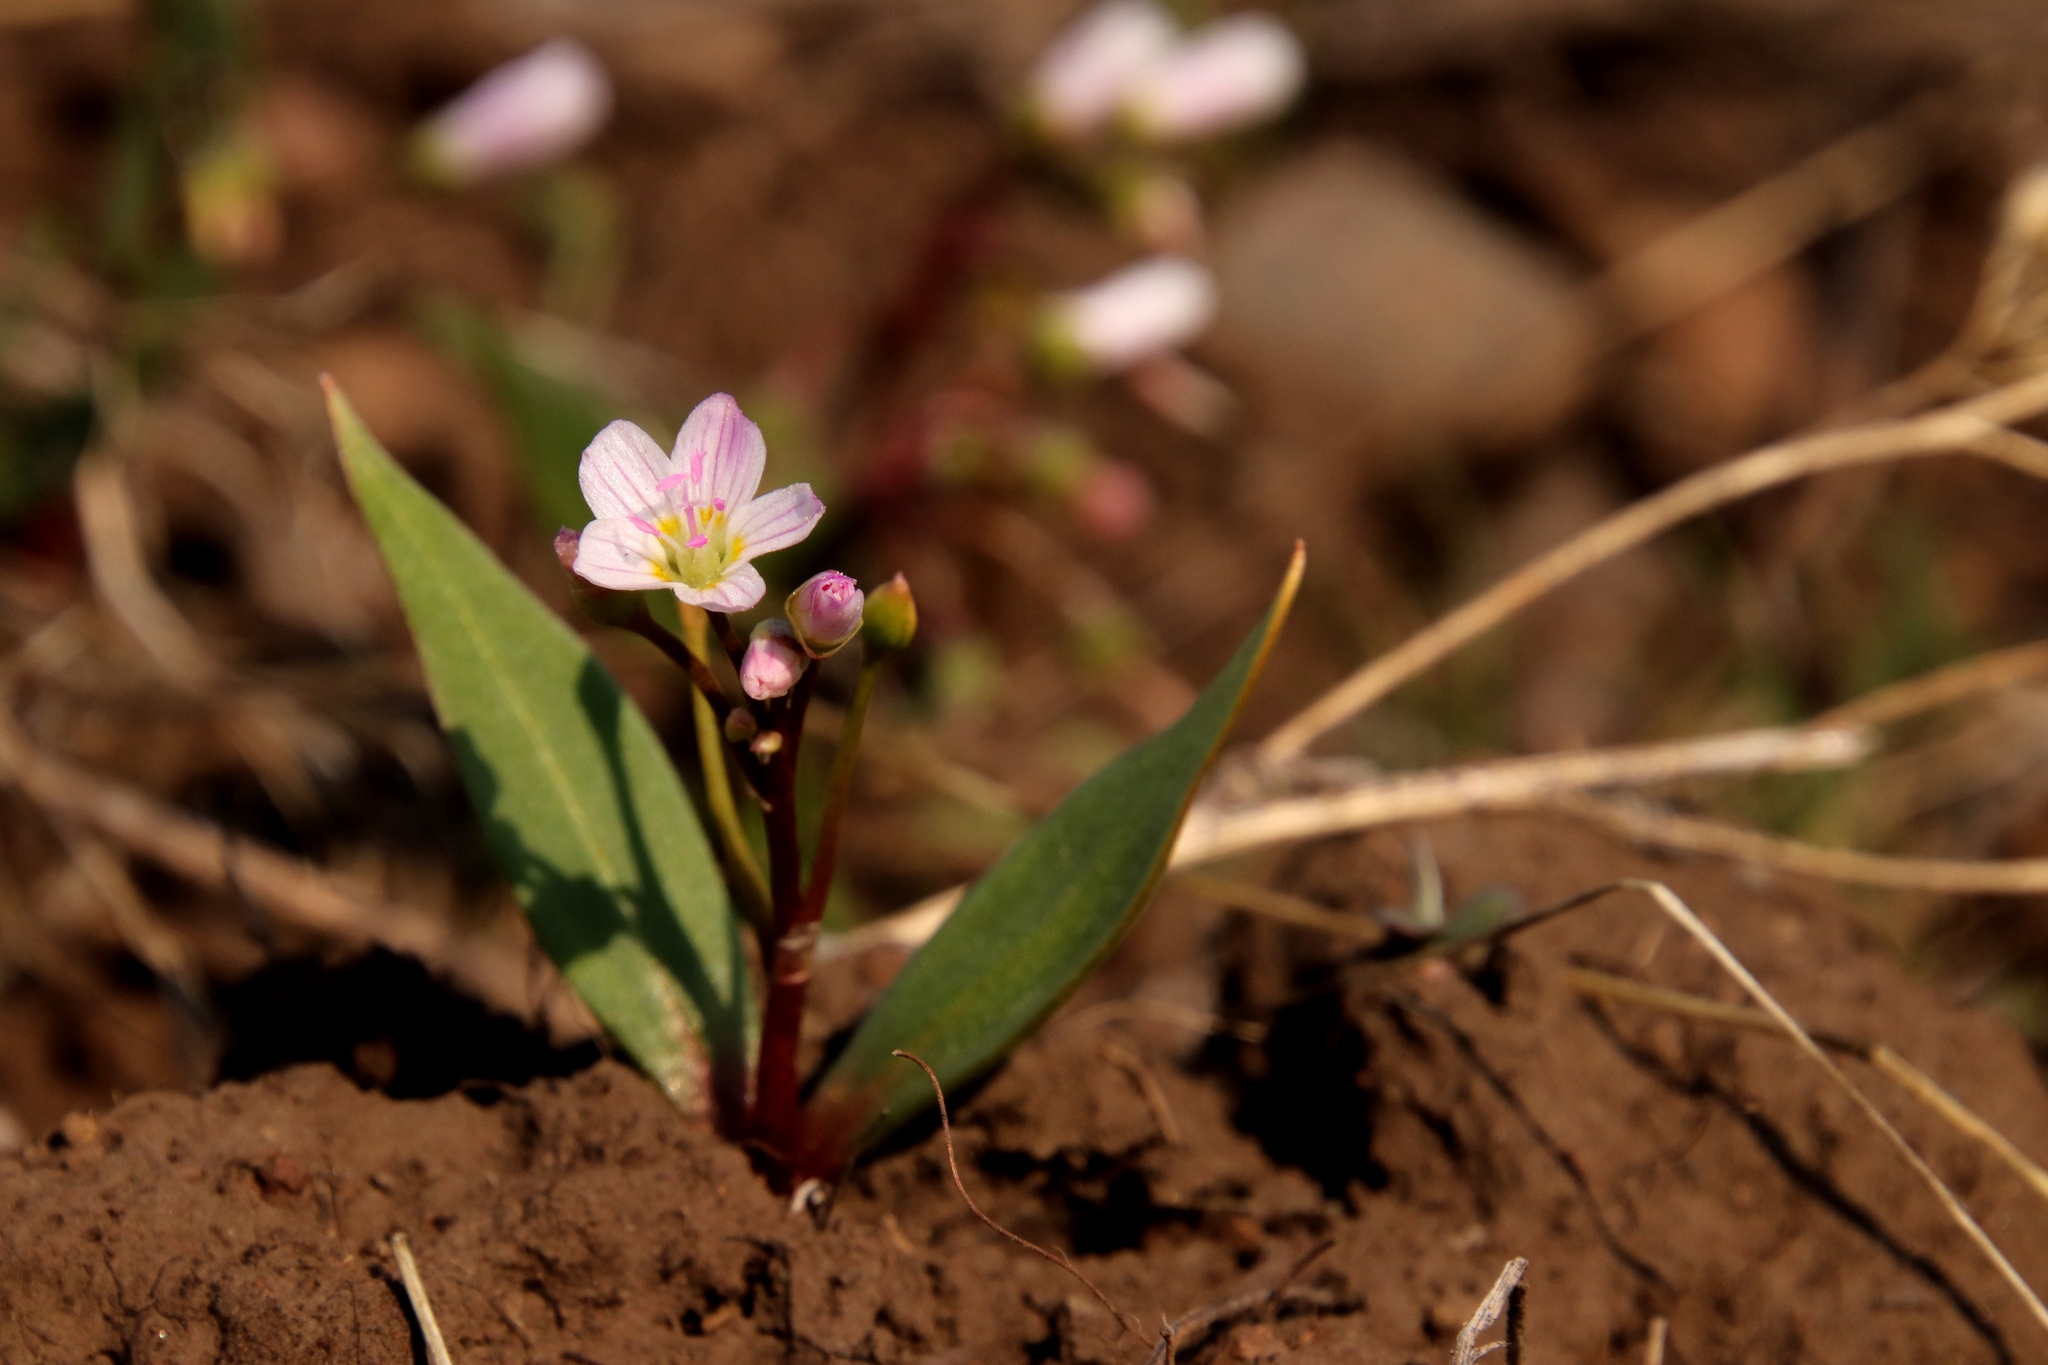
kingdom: Plantae
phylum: Tracheophyta
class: Magnoliopsida
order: Caryophyllales
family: Montiaceae
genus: Claytonia
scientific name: Claytonia lanceolata
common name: Western spring-beauty
